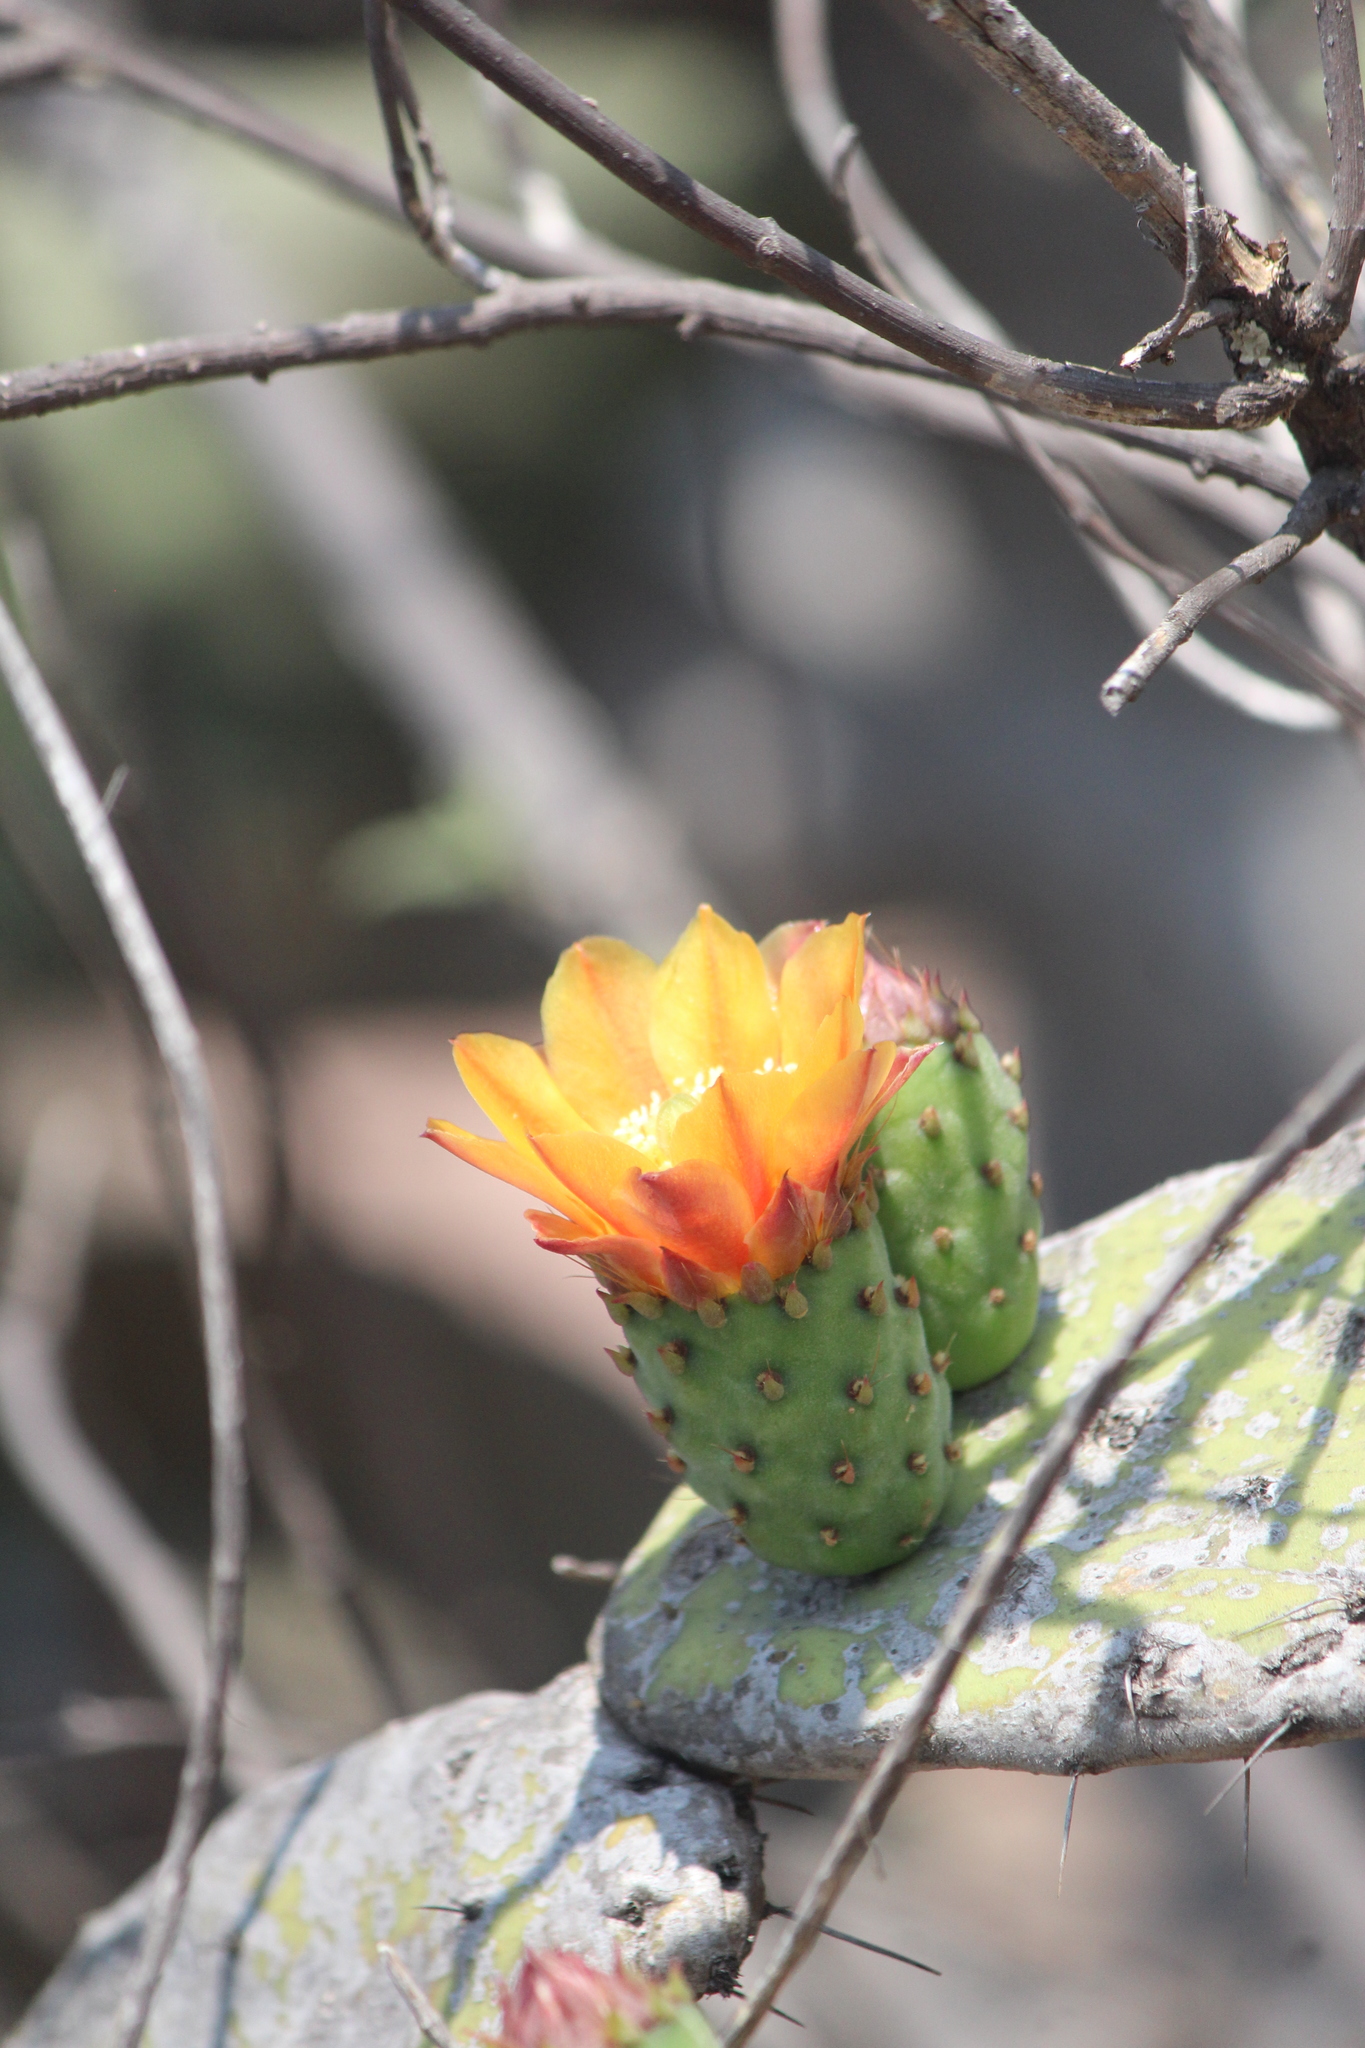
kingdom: Plantae
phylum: Tracheophyta
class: Magnoliopsida
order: Caryophyllales
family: Cactaceae
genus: Opuntia
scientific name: Opuntia tomentosa
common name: Woollyjoint pricklypear
